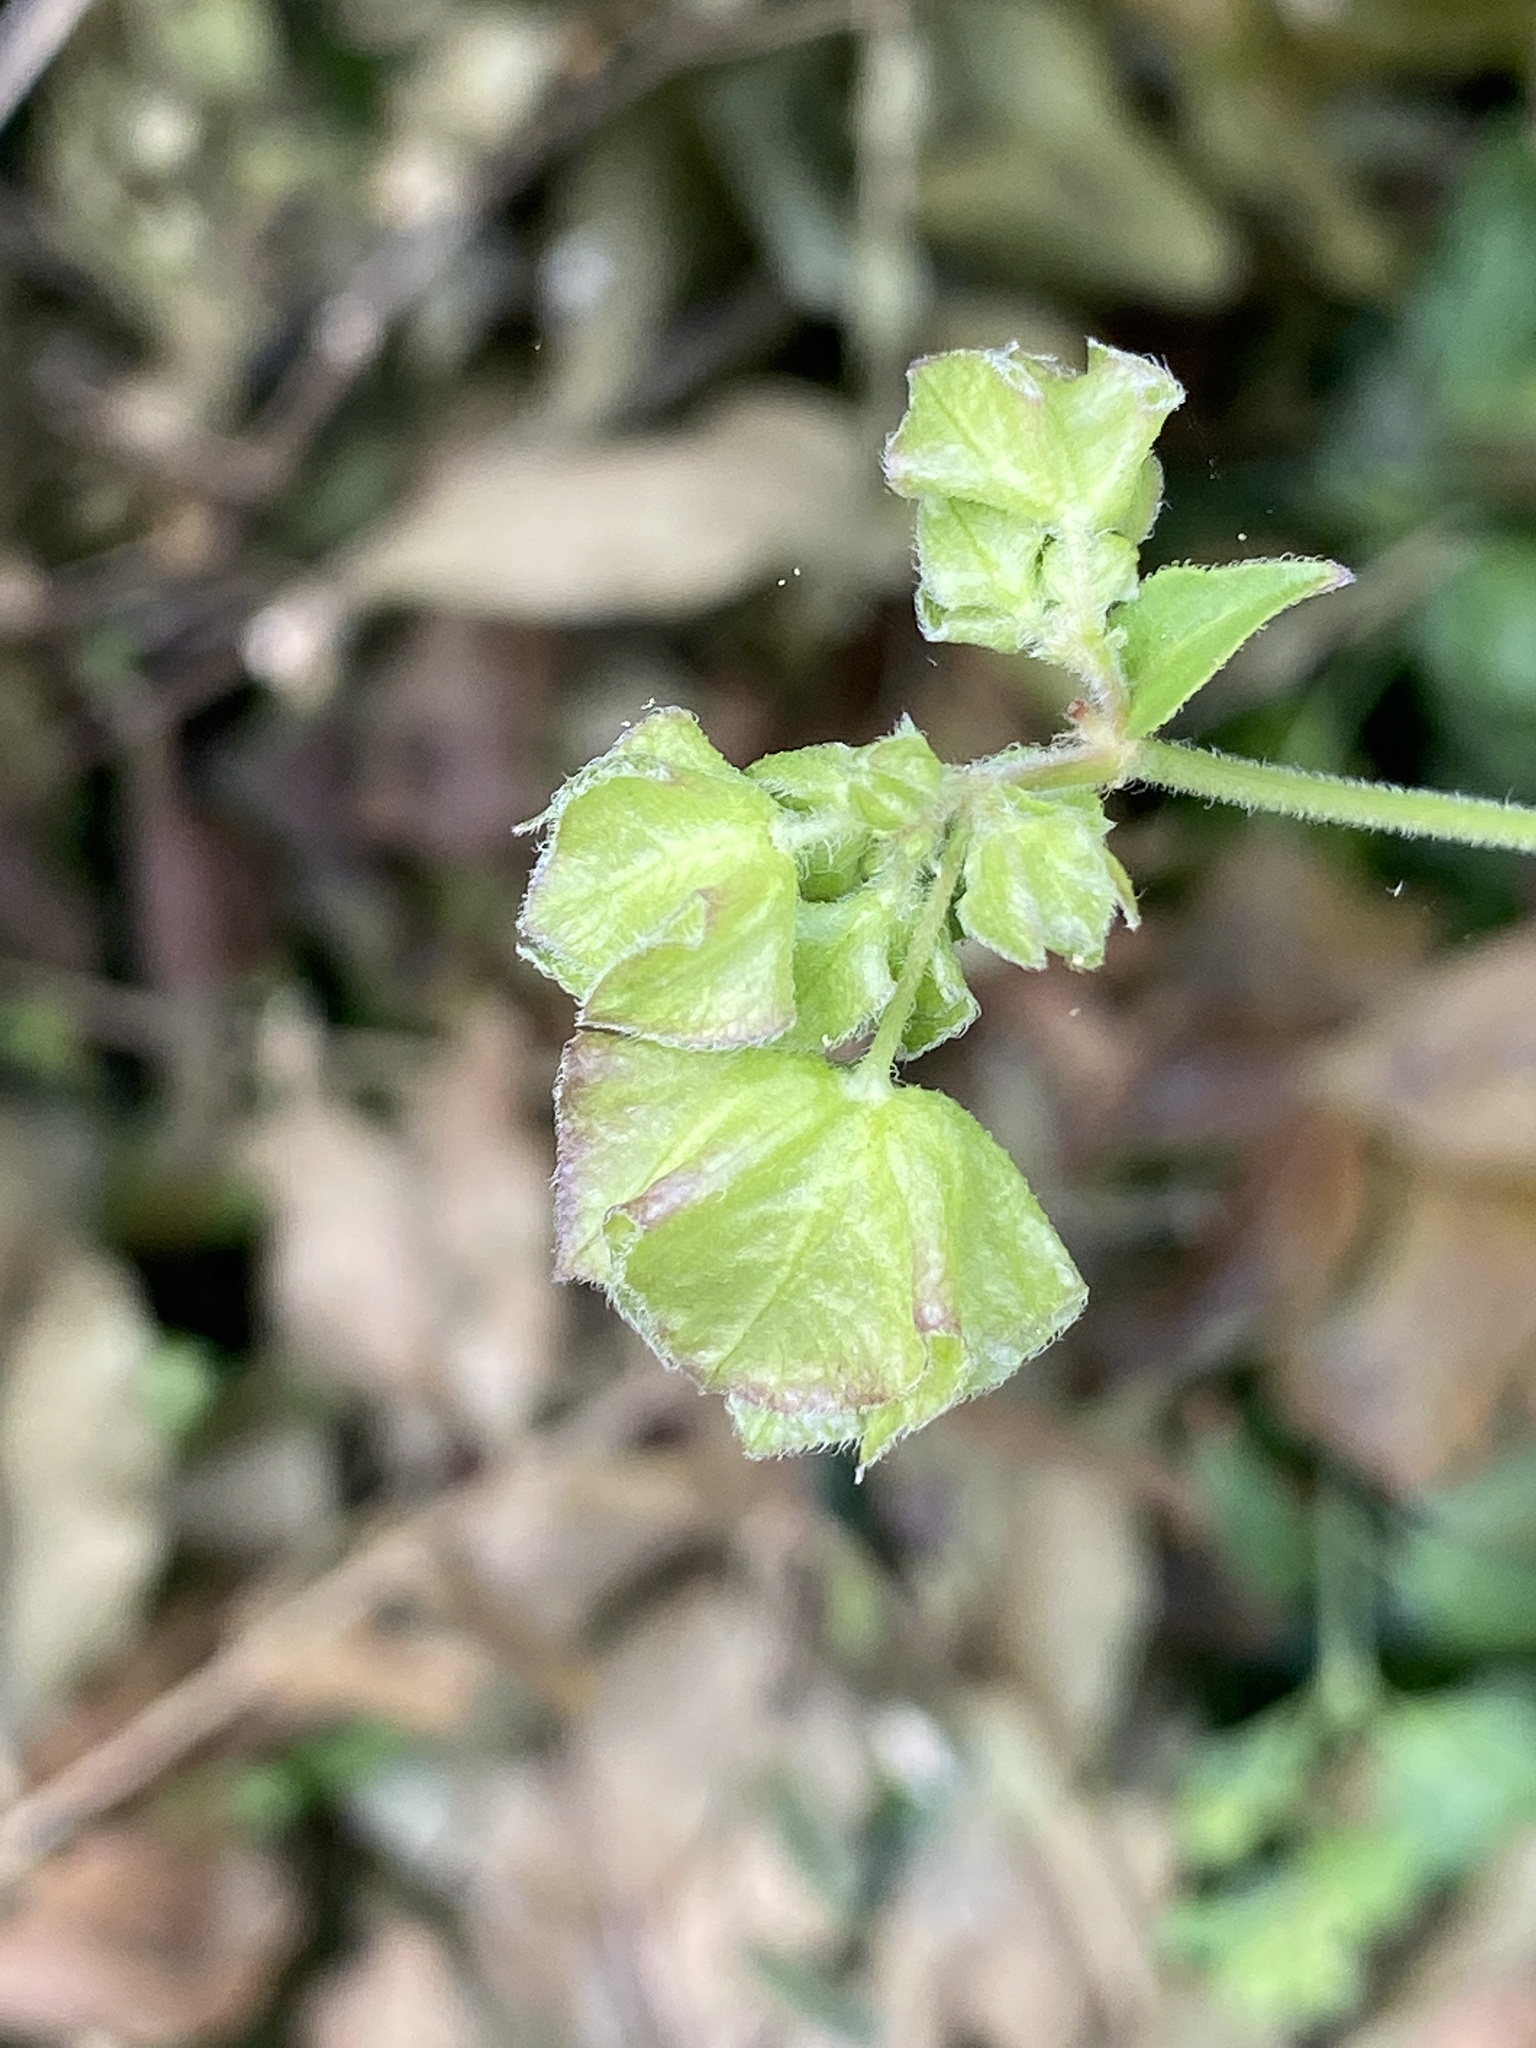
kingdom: Plantae
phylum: Tracheophyta
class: Magnoliopsida
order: Caryophyllales
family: Nyctaginaceae
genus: Mirabilis
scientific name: Mirabilis nyctaginea
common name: Umbrella wort
